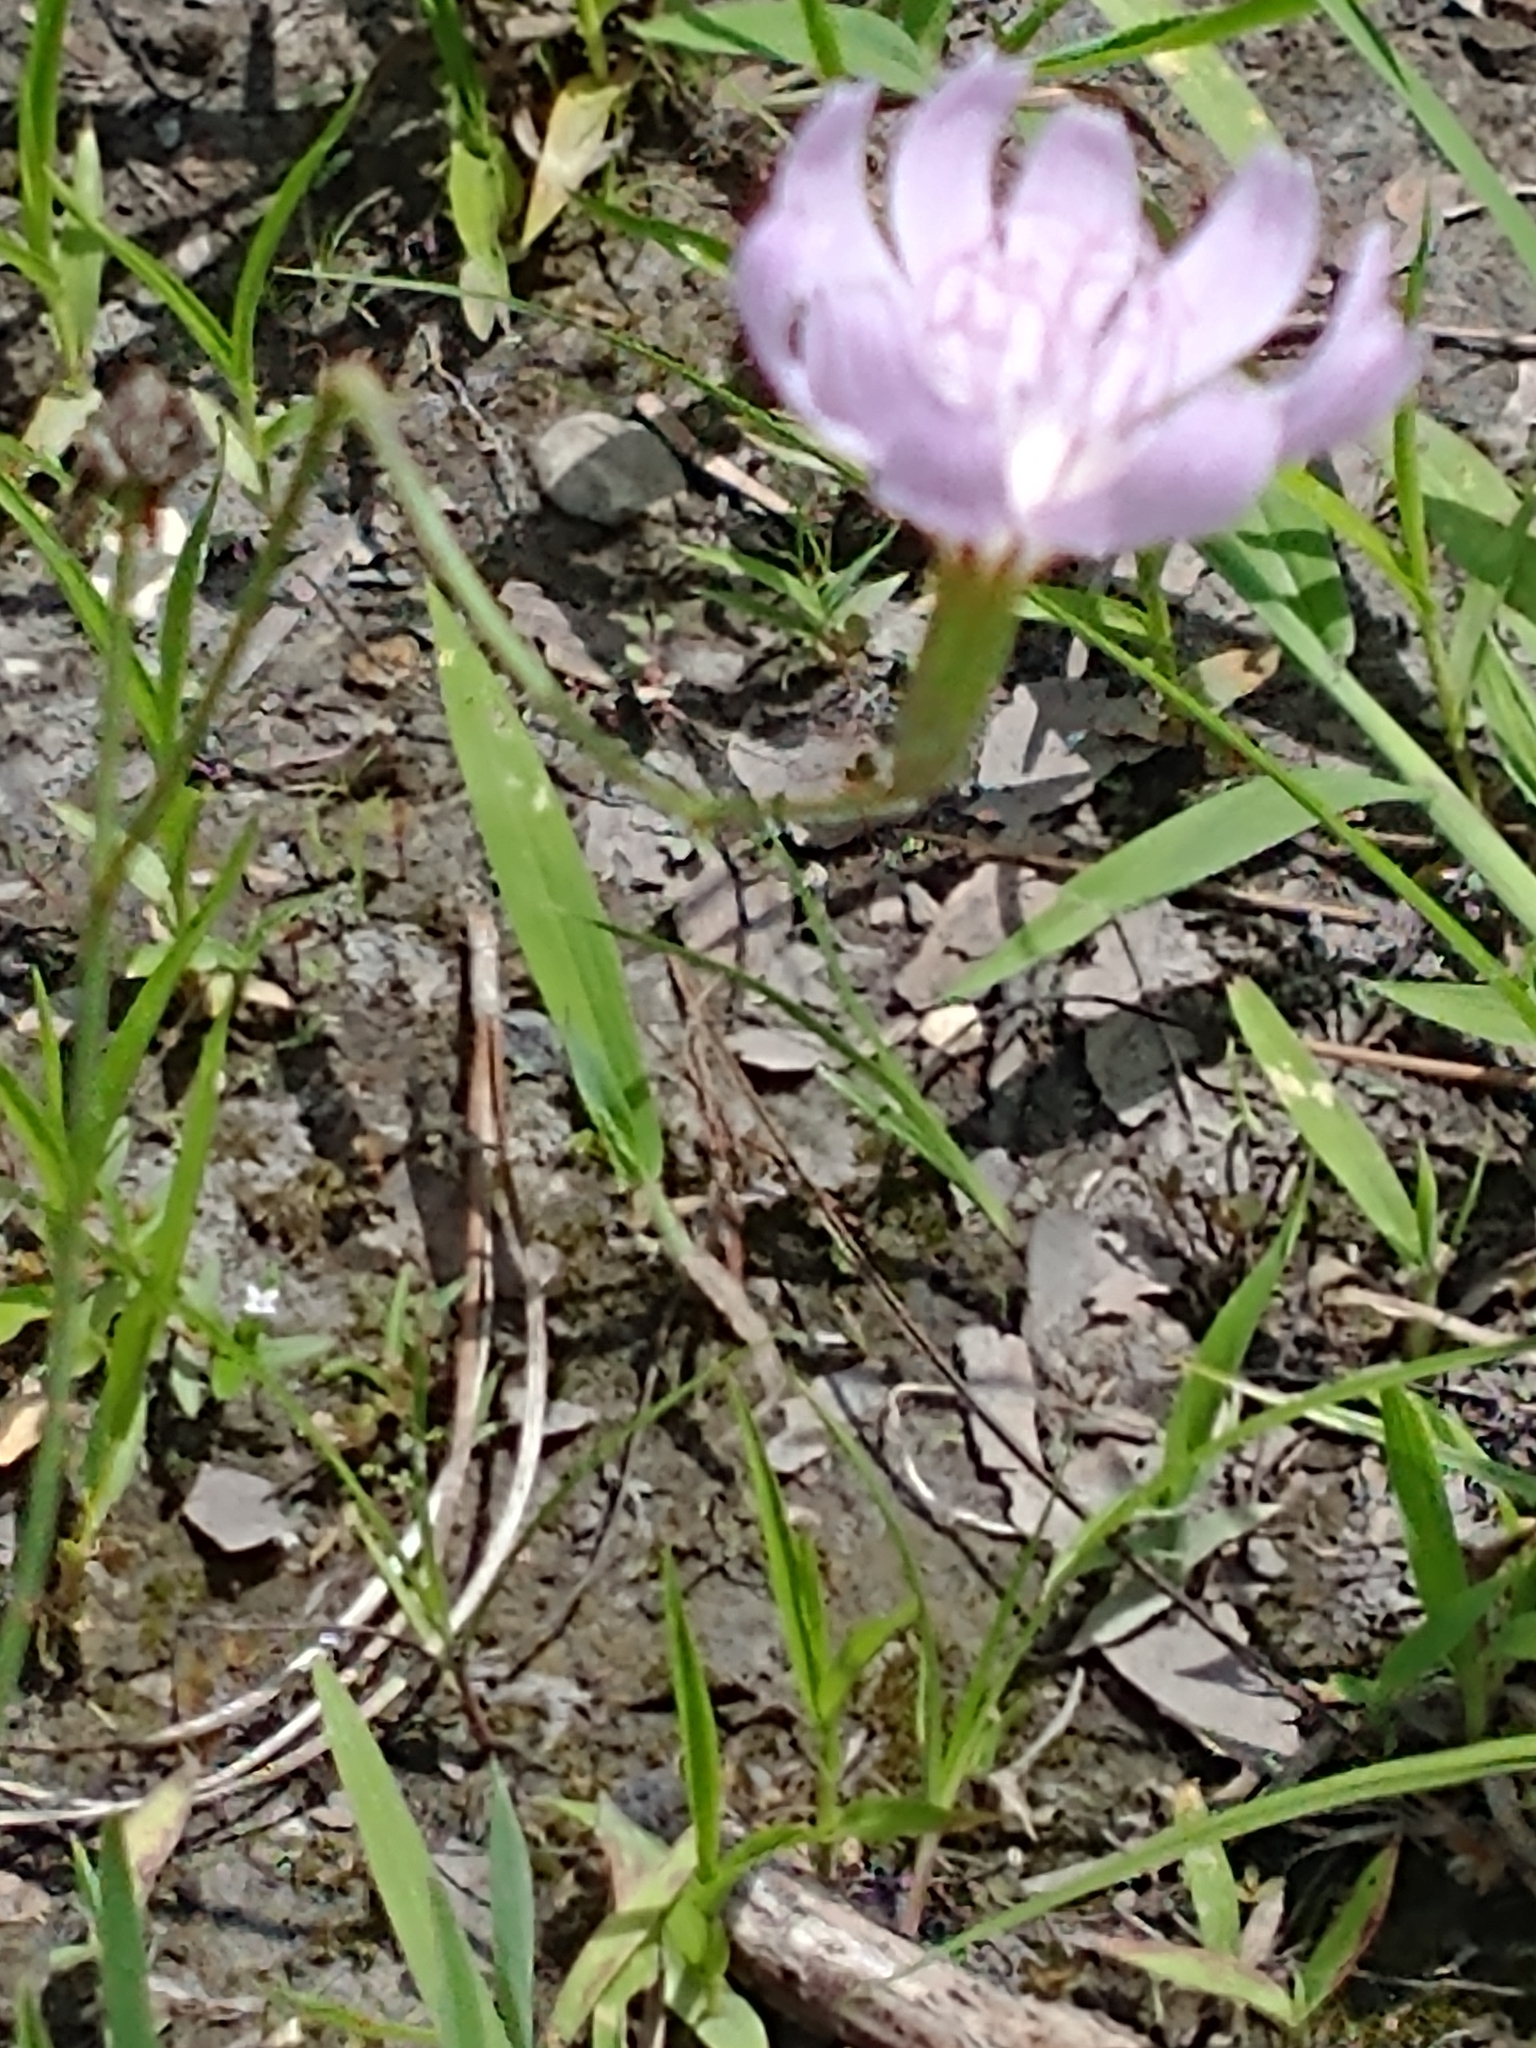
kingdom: Plantae
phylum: Tracheophyta
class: Magnoliopsida
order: Asterales
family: Asteraceae
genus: Lygodesmia
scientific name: Lygodesmia aphylla
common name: Rose-rush
